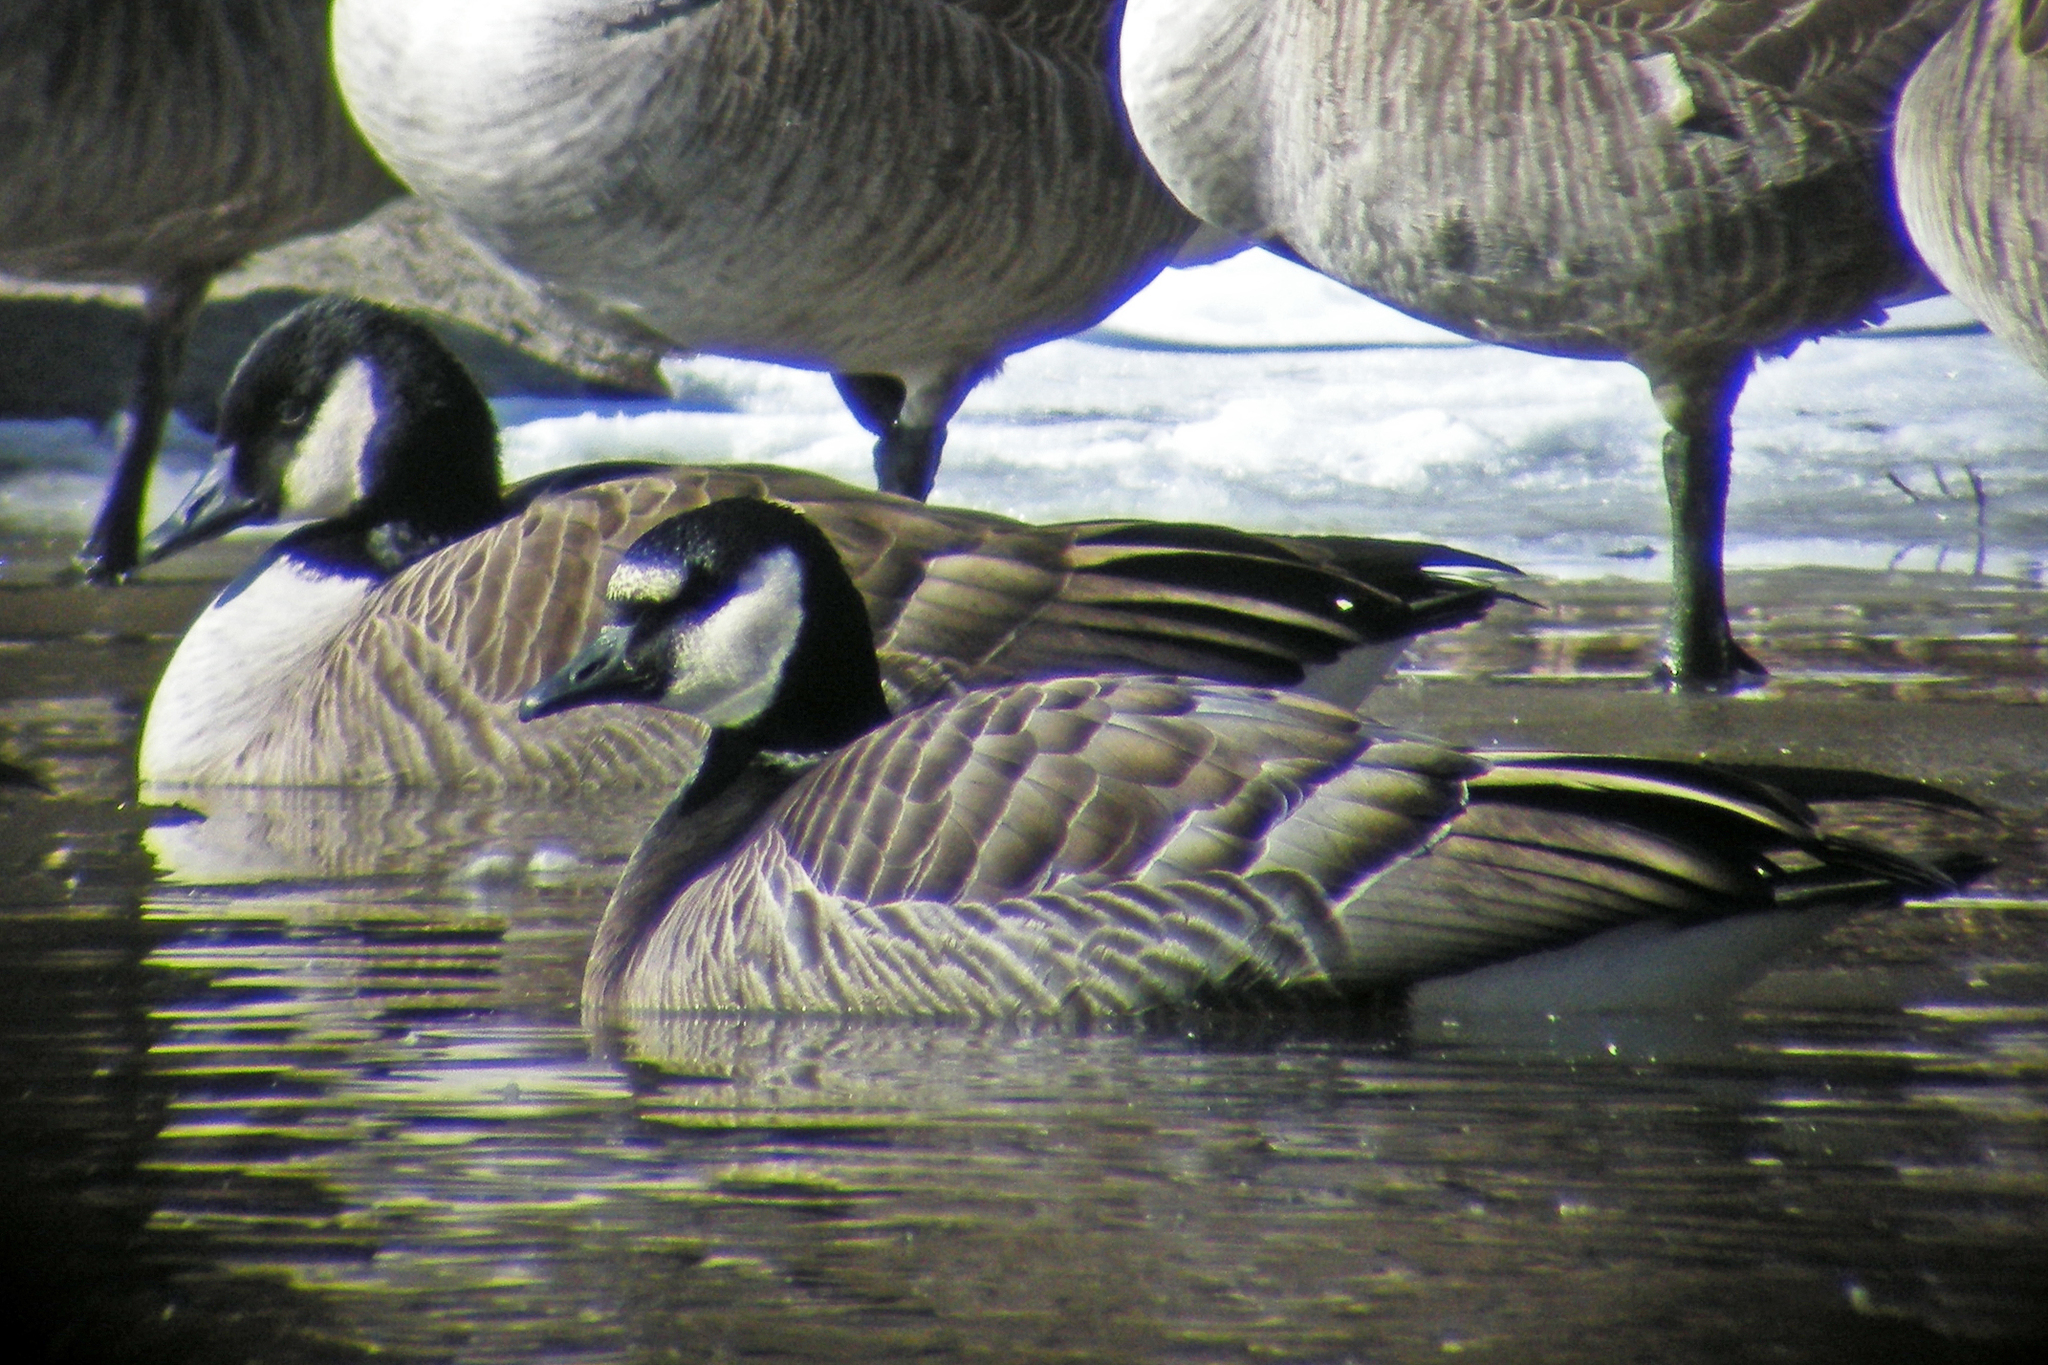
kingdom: Animalia
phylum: Chordata
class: Aves
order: Anseriformes
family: Anatidae
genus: Branta
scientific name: Branta
